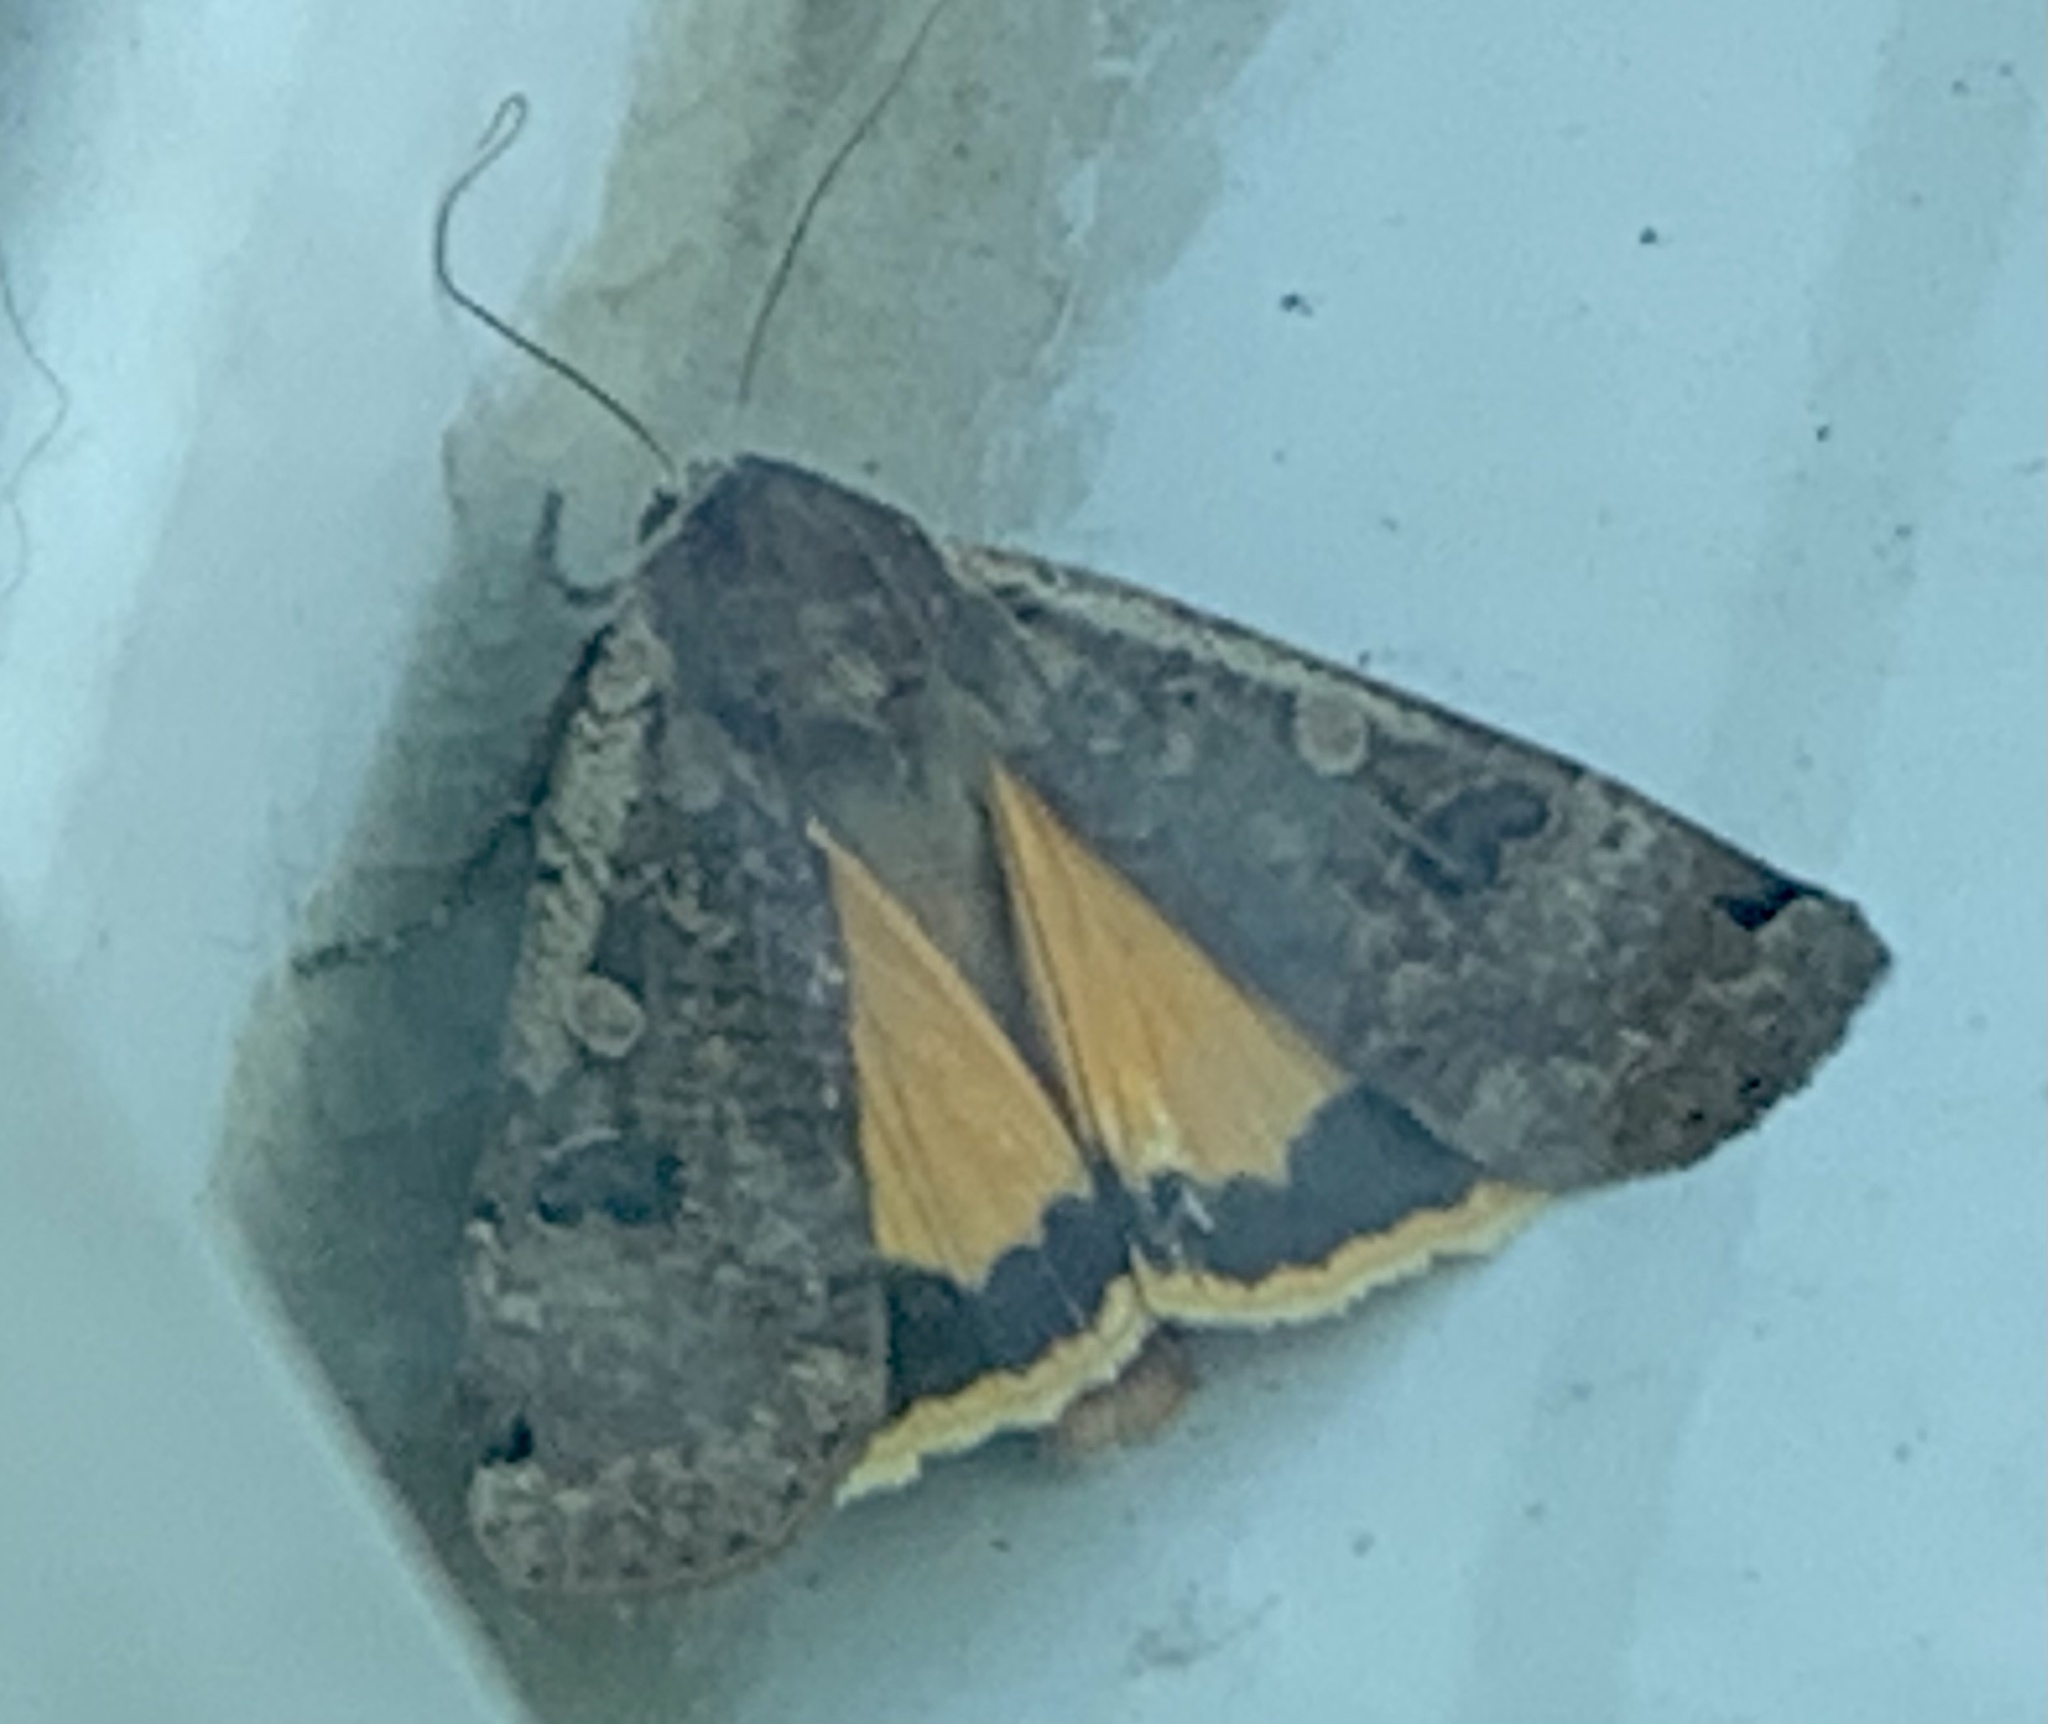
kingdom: Animalia
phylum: Arthropoda
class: Insecta
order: Lepidoptera
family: Noctuidae
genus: Noctua
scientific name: Noctua pronuba
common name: Large yellow underwing
